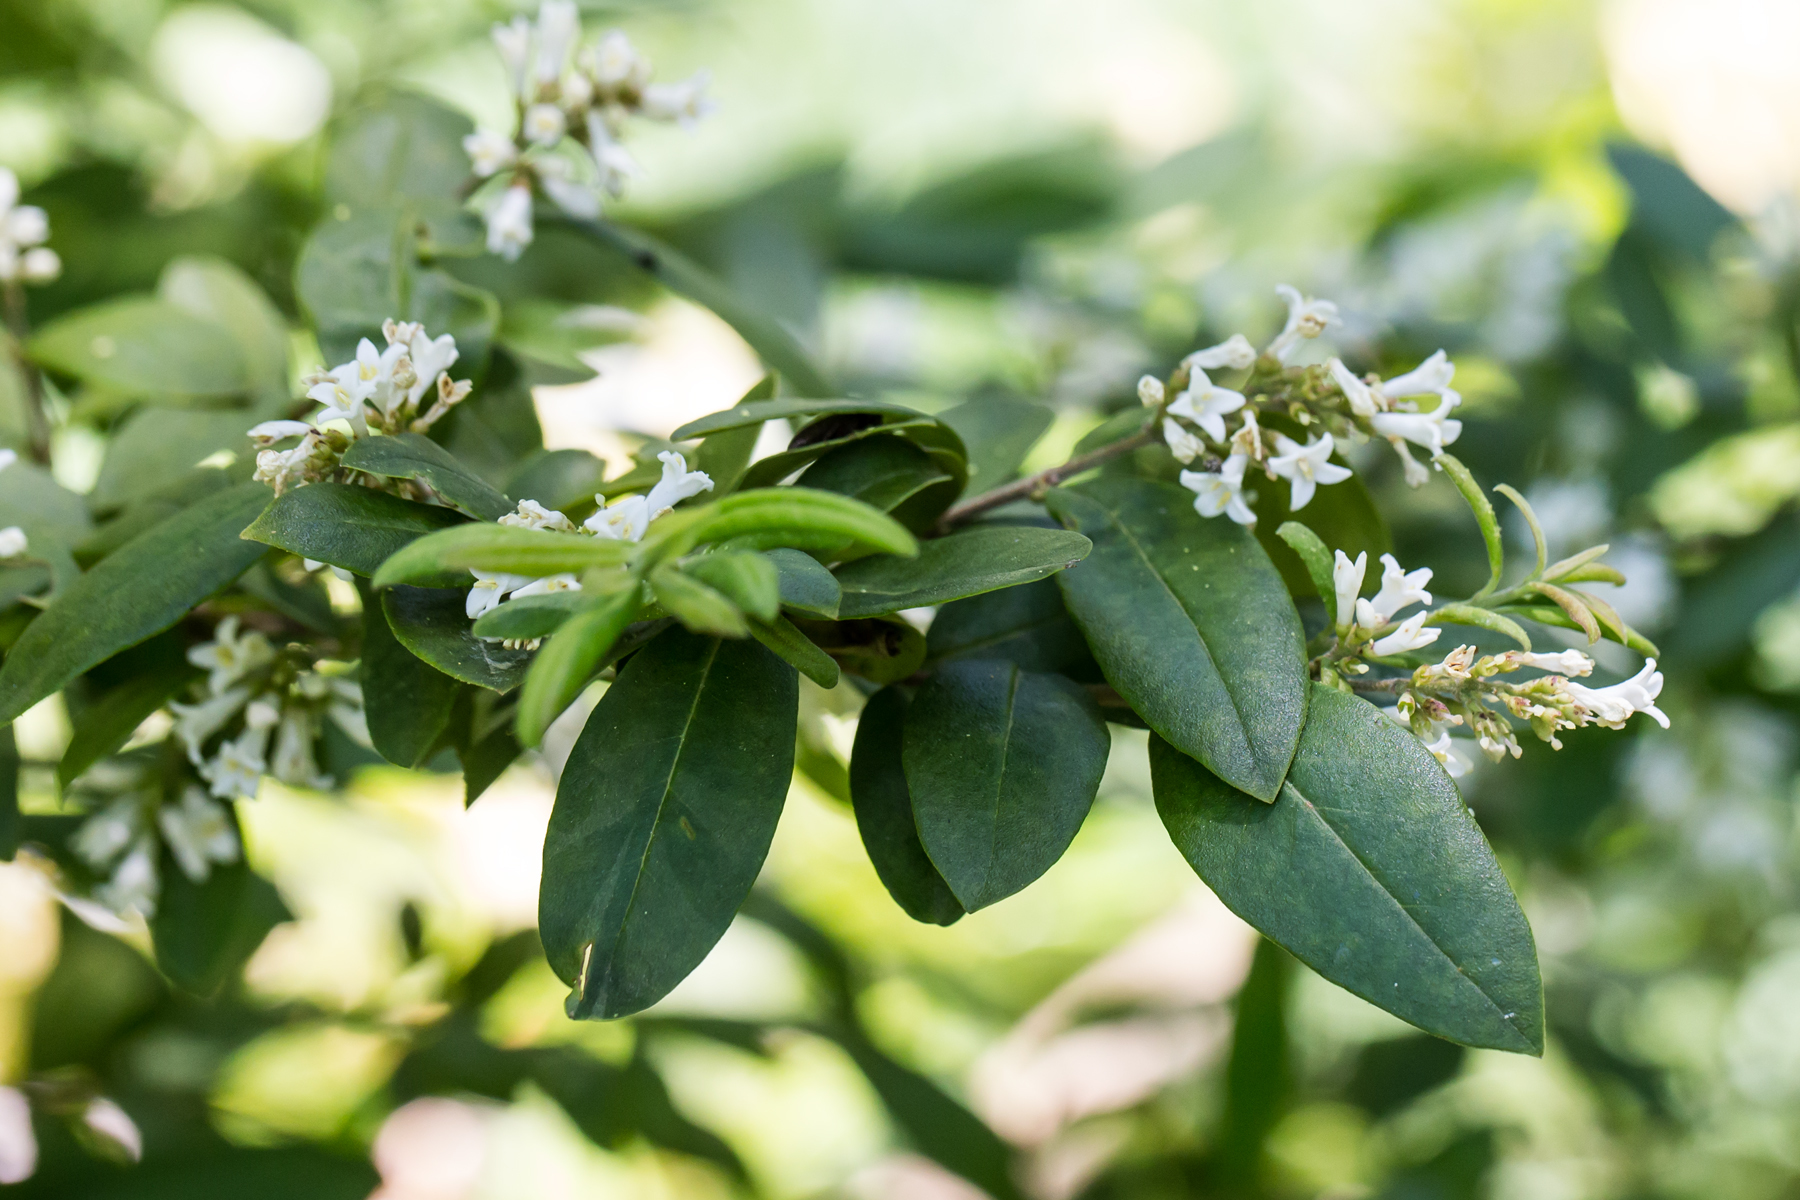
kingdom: Plantae
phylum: Tracheophyta
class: Magnoliopsida
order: Lamiales
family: Oleaceae
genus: Ligustrum
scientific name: Ligustrum obtusifolium
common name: Border privet
